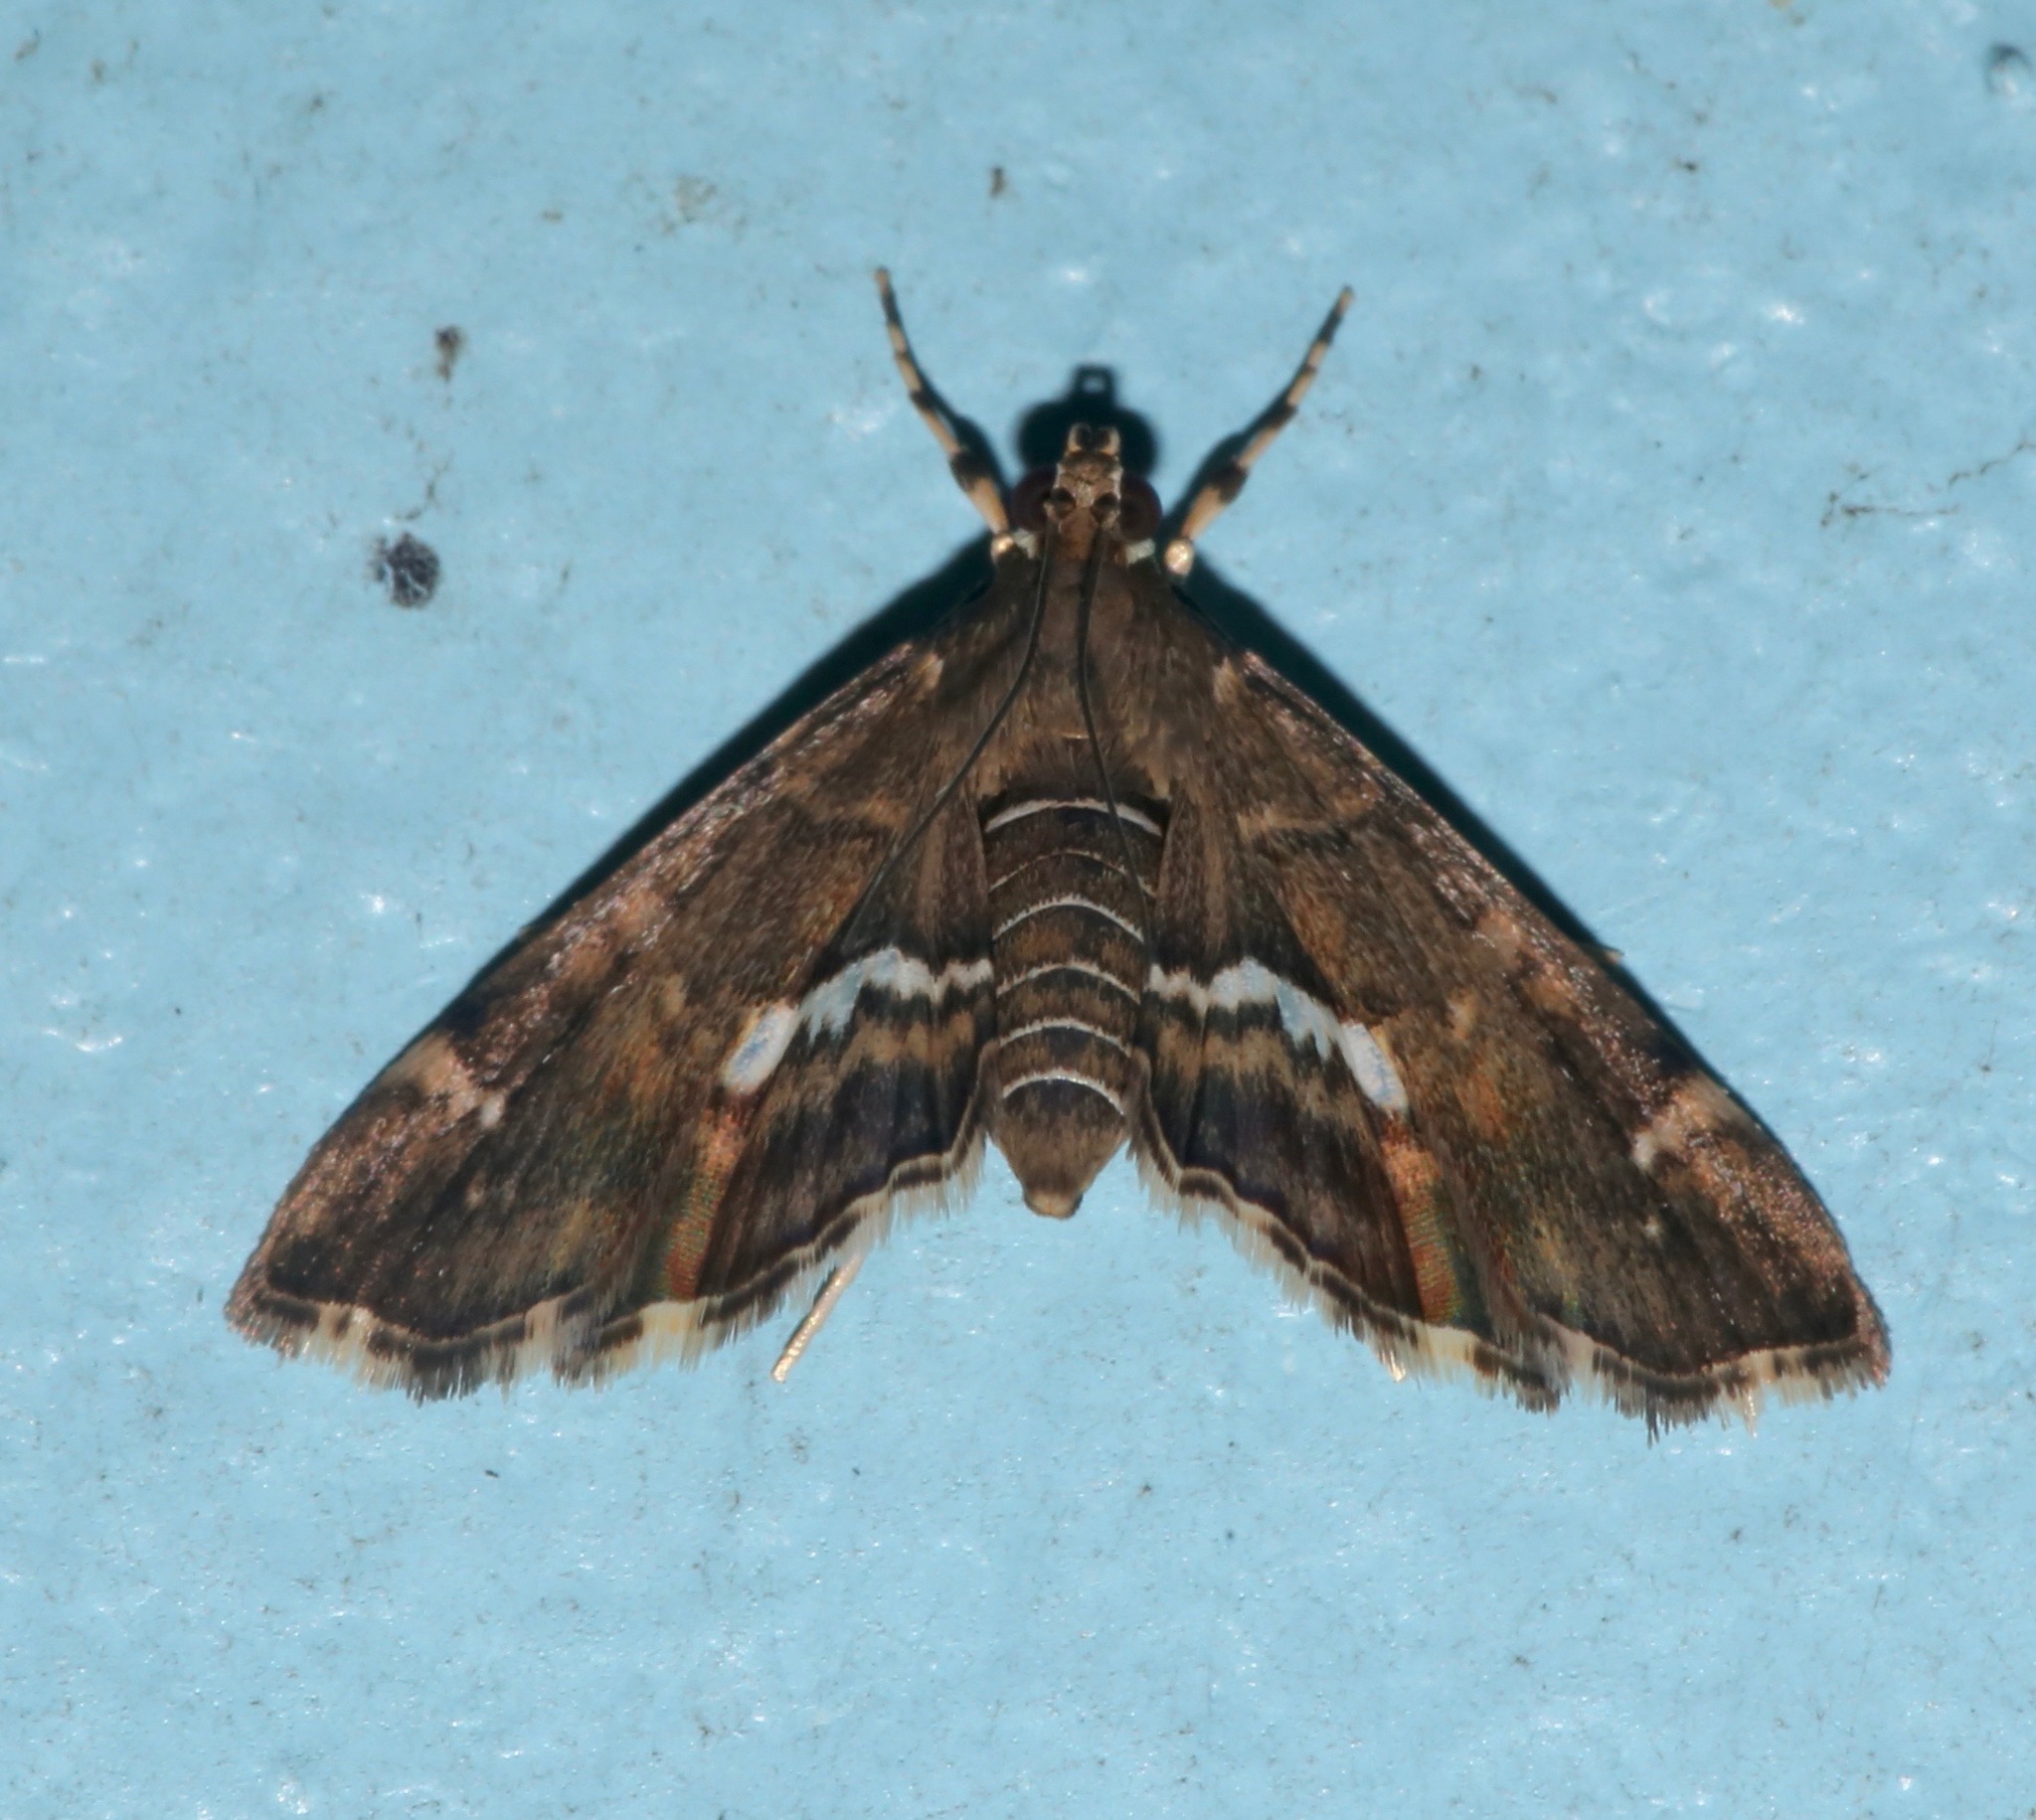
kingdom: Animalia
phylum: Arthropoda
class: Insecta
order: Lepidoptera
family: Crambidae
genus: Hymenia
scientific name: Hymenia perspectalis
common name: Spotted beet webworm
